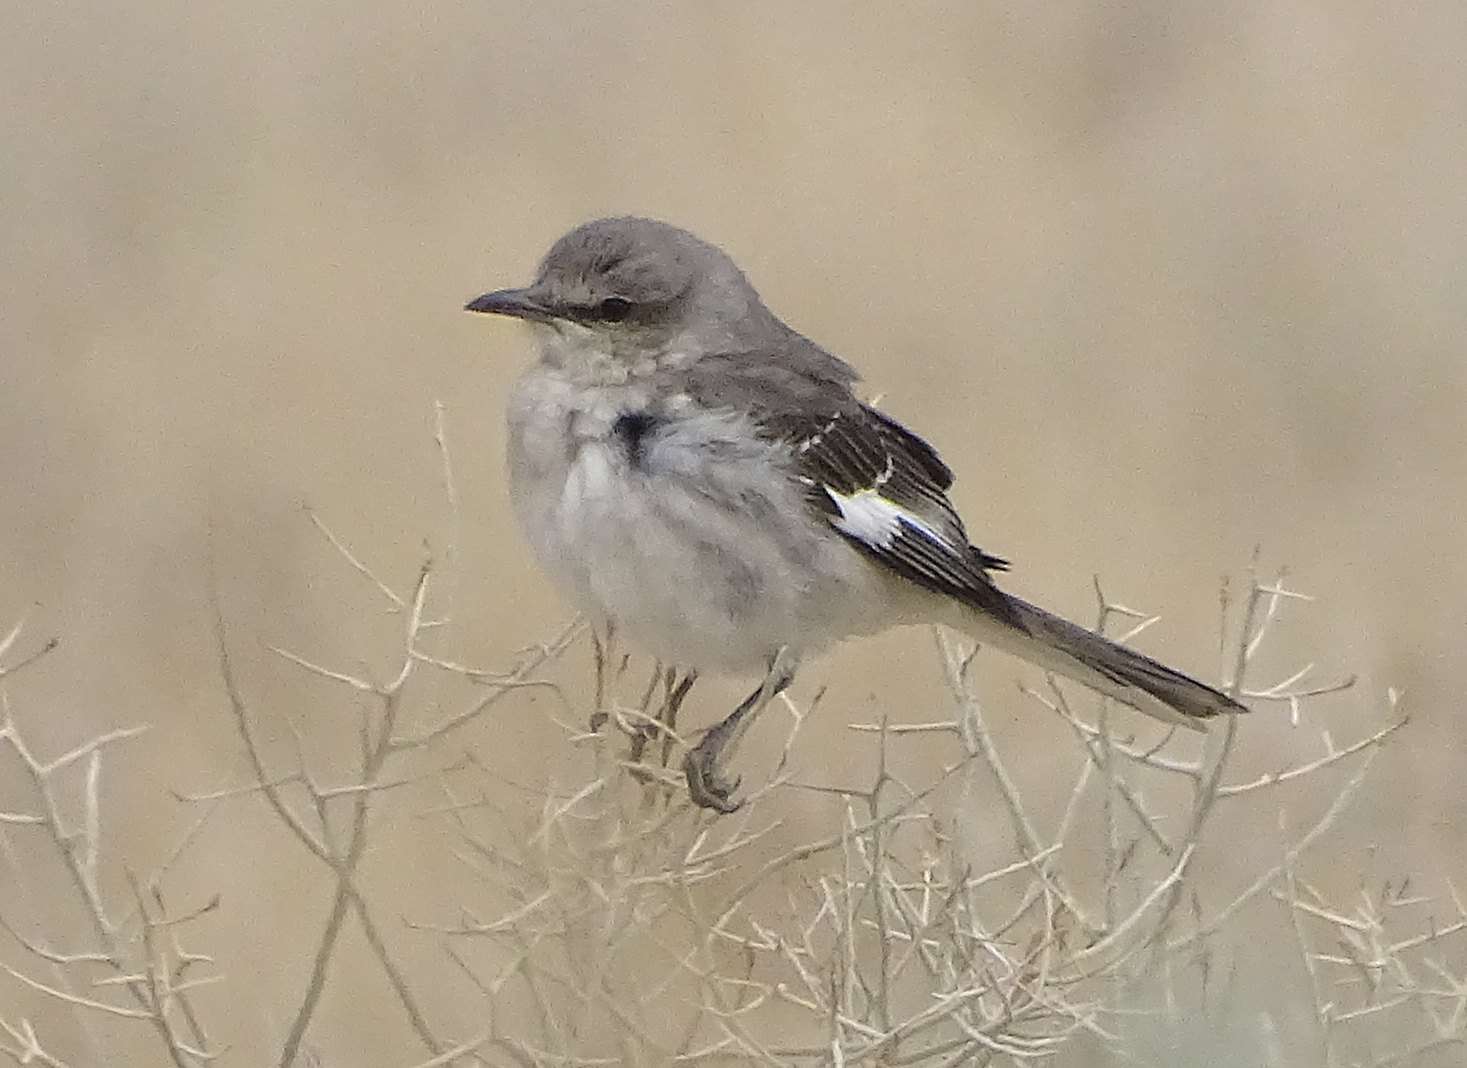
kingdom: Animalia
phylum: Chordata
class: Aves
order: Passeriformes
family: Mimidae
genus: Mimus
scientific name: Mimus polyglottos
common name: Northern mockingbird
